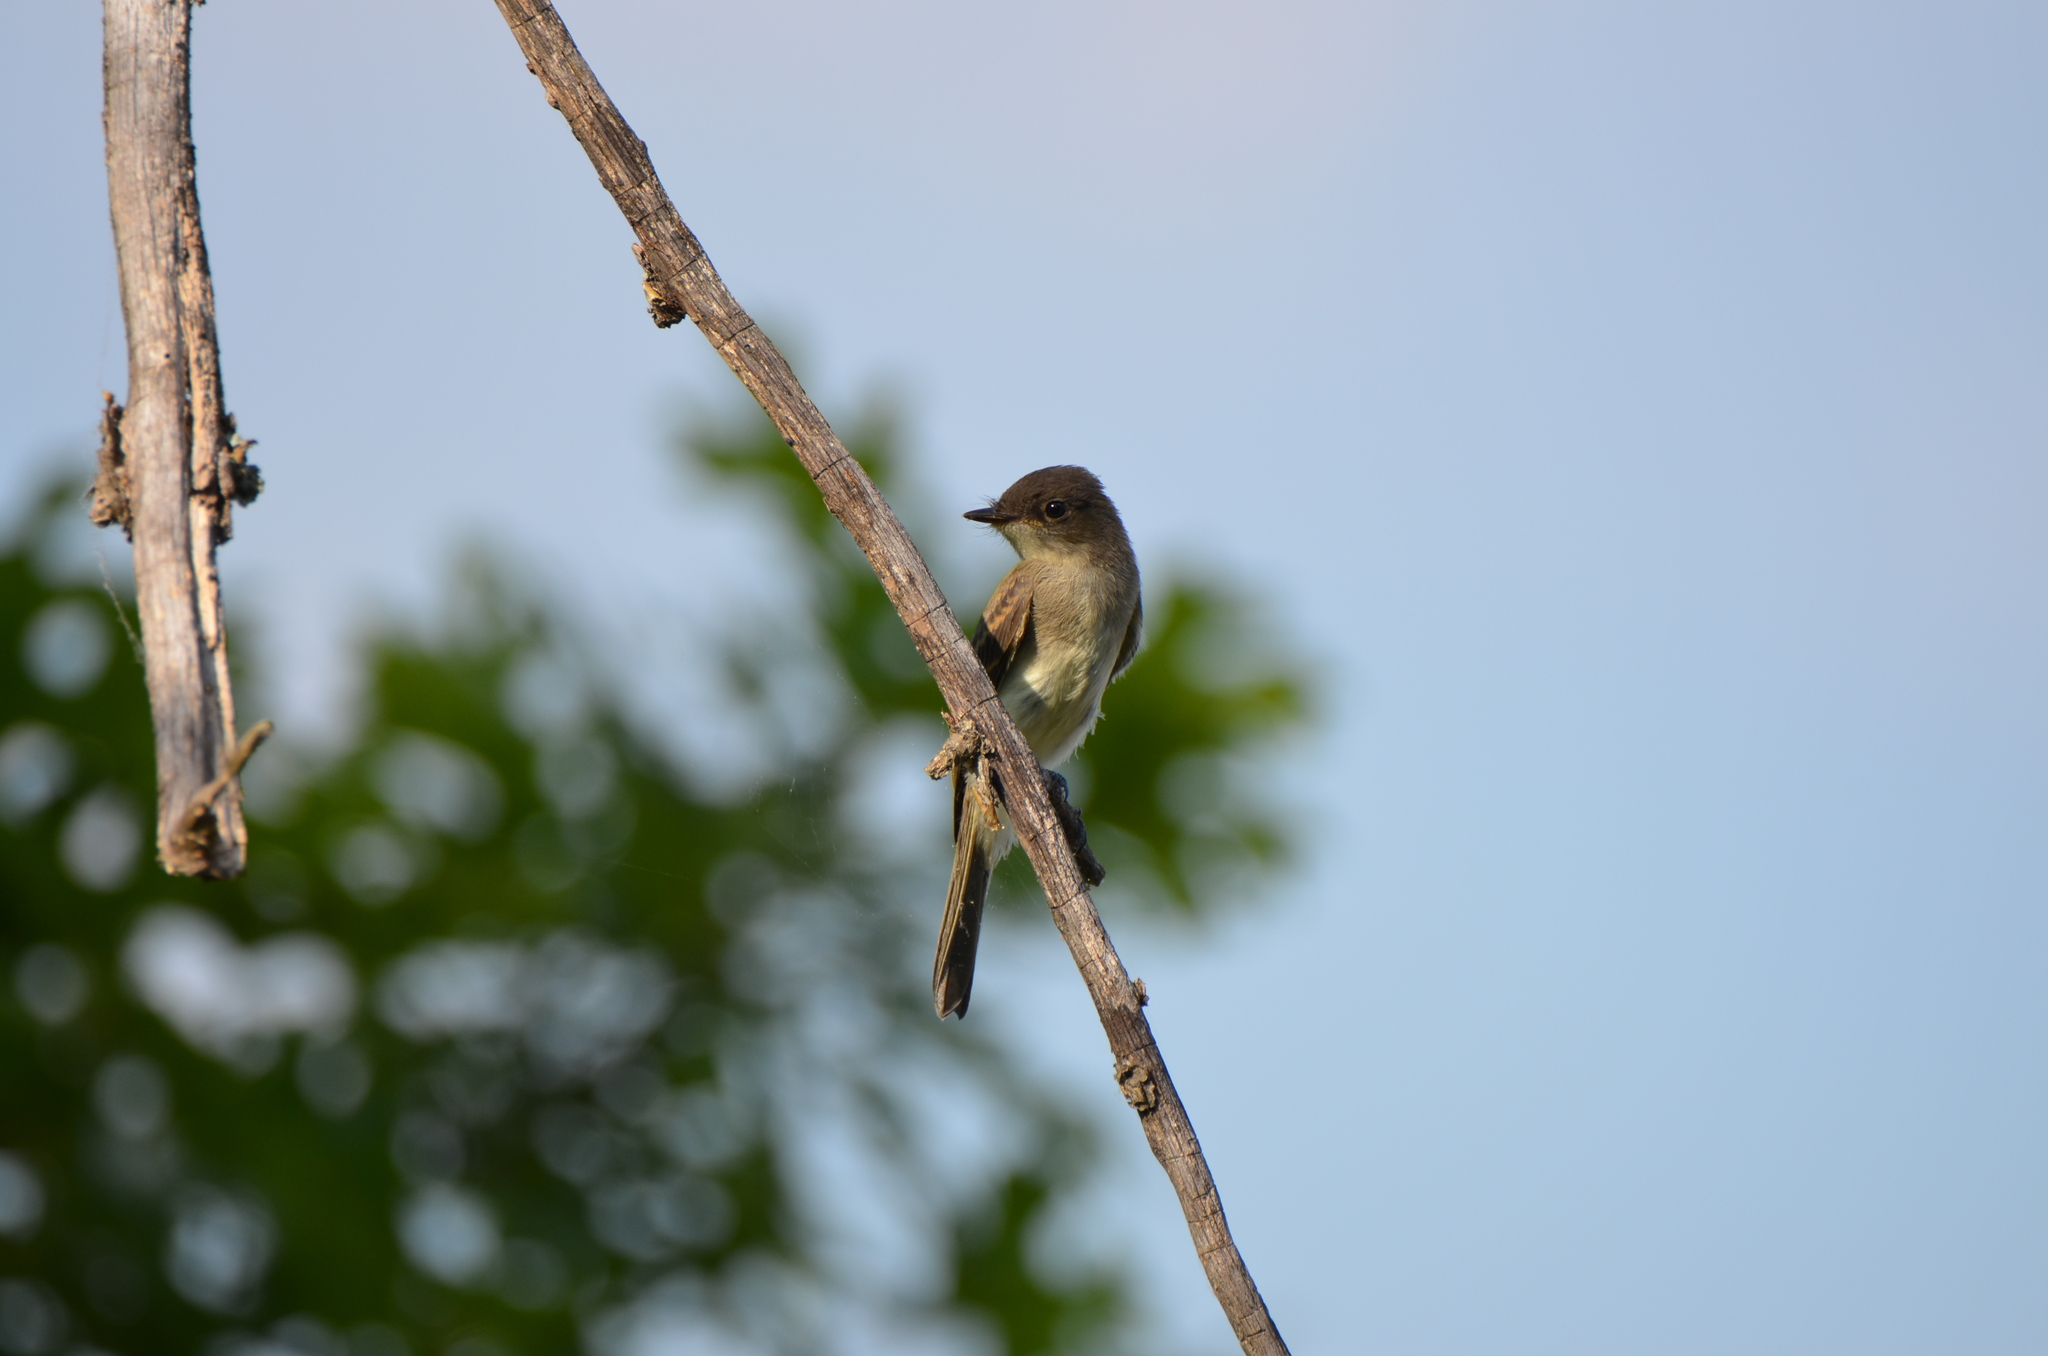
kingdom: Animalia
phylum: Chordata
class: Aves
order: Passeriformes
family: Tyrannidae
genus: Sayornis
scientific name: Sayornis phoebe
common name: Eastern phoebe
